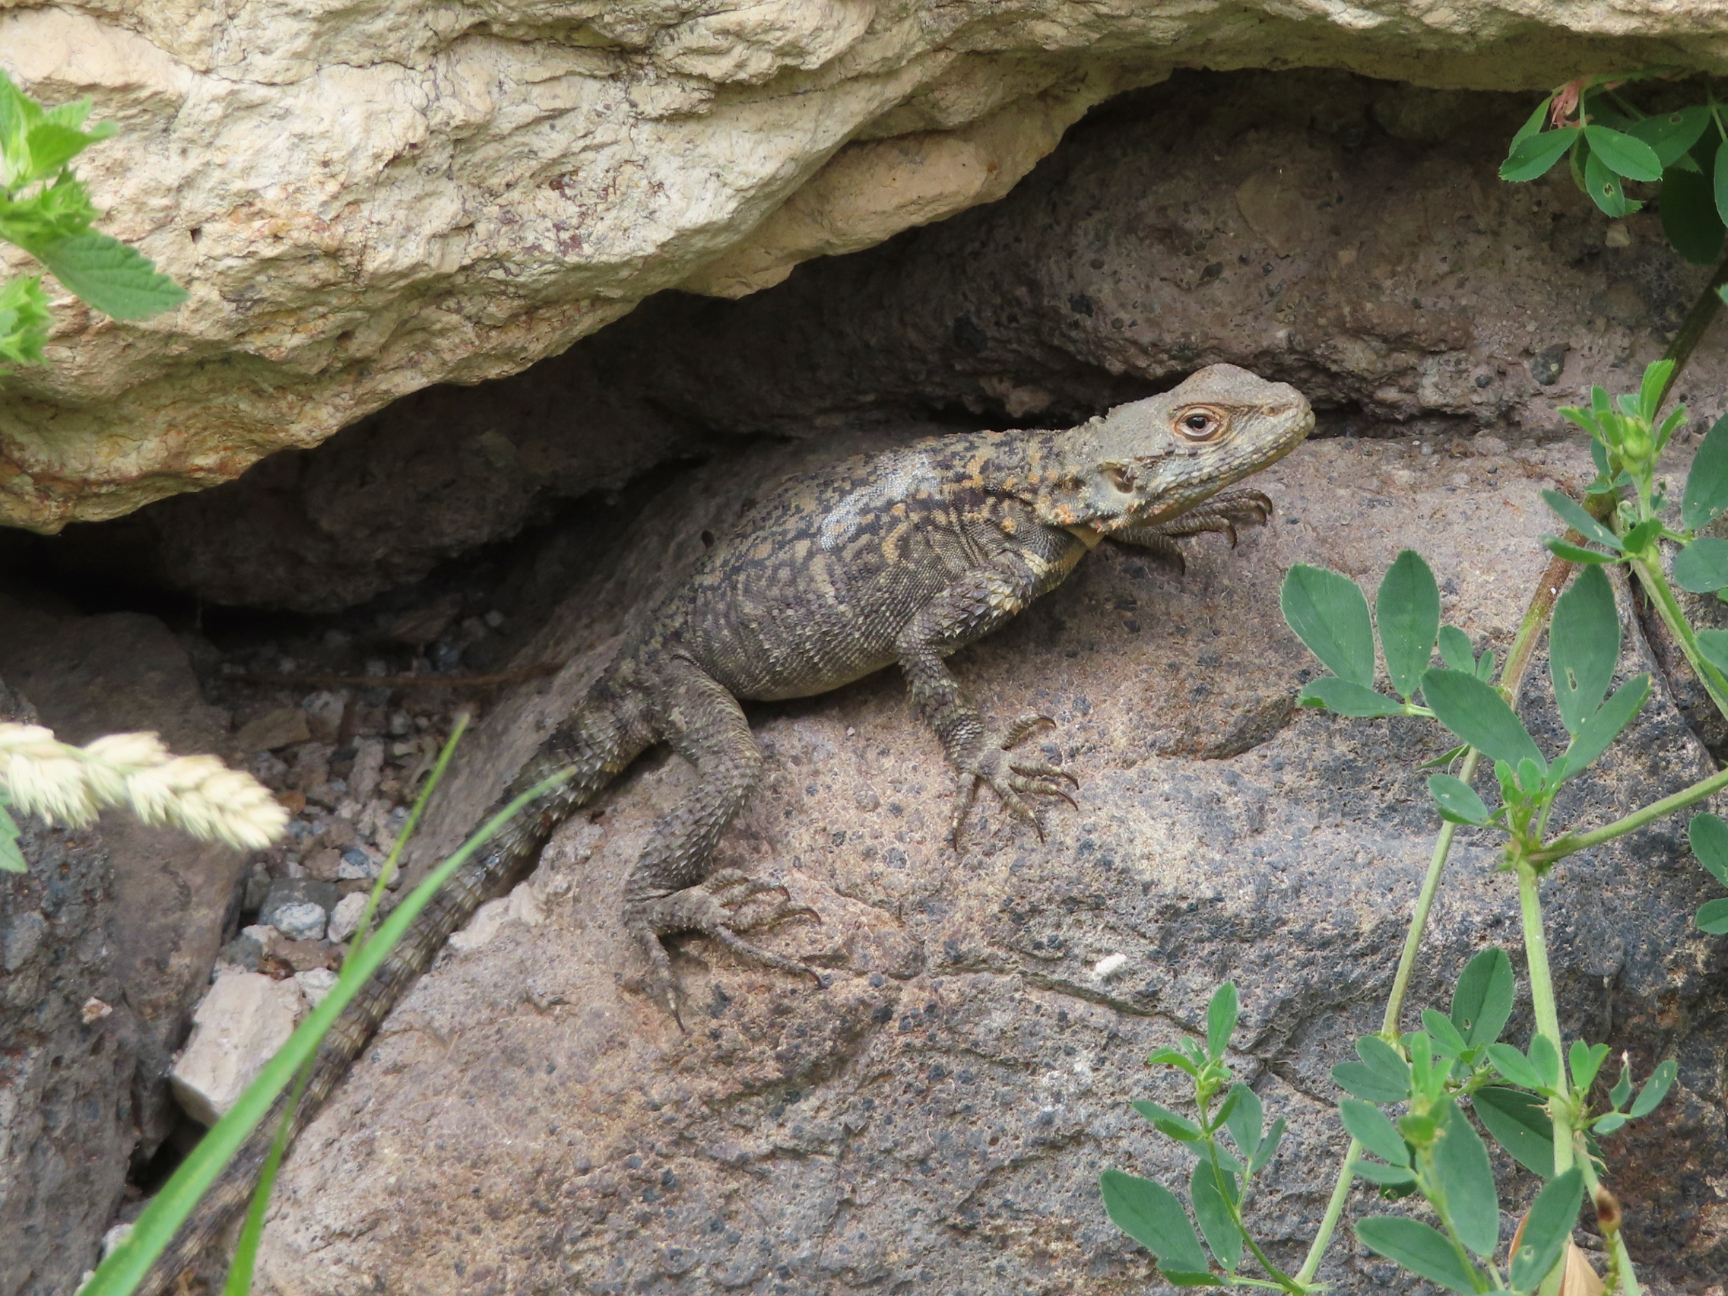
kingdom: Animalia
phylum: Chordata
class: Squamata
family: Agamidae
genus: Paralaudakia
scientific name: Paralaudakia caucasia
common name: Caucasian agama
